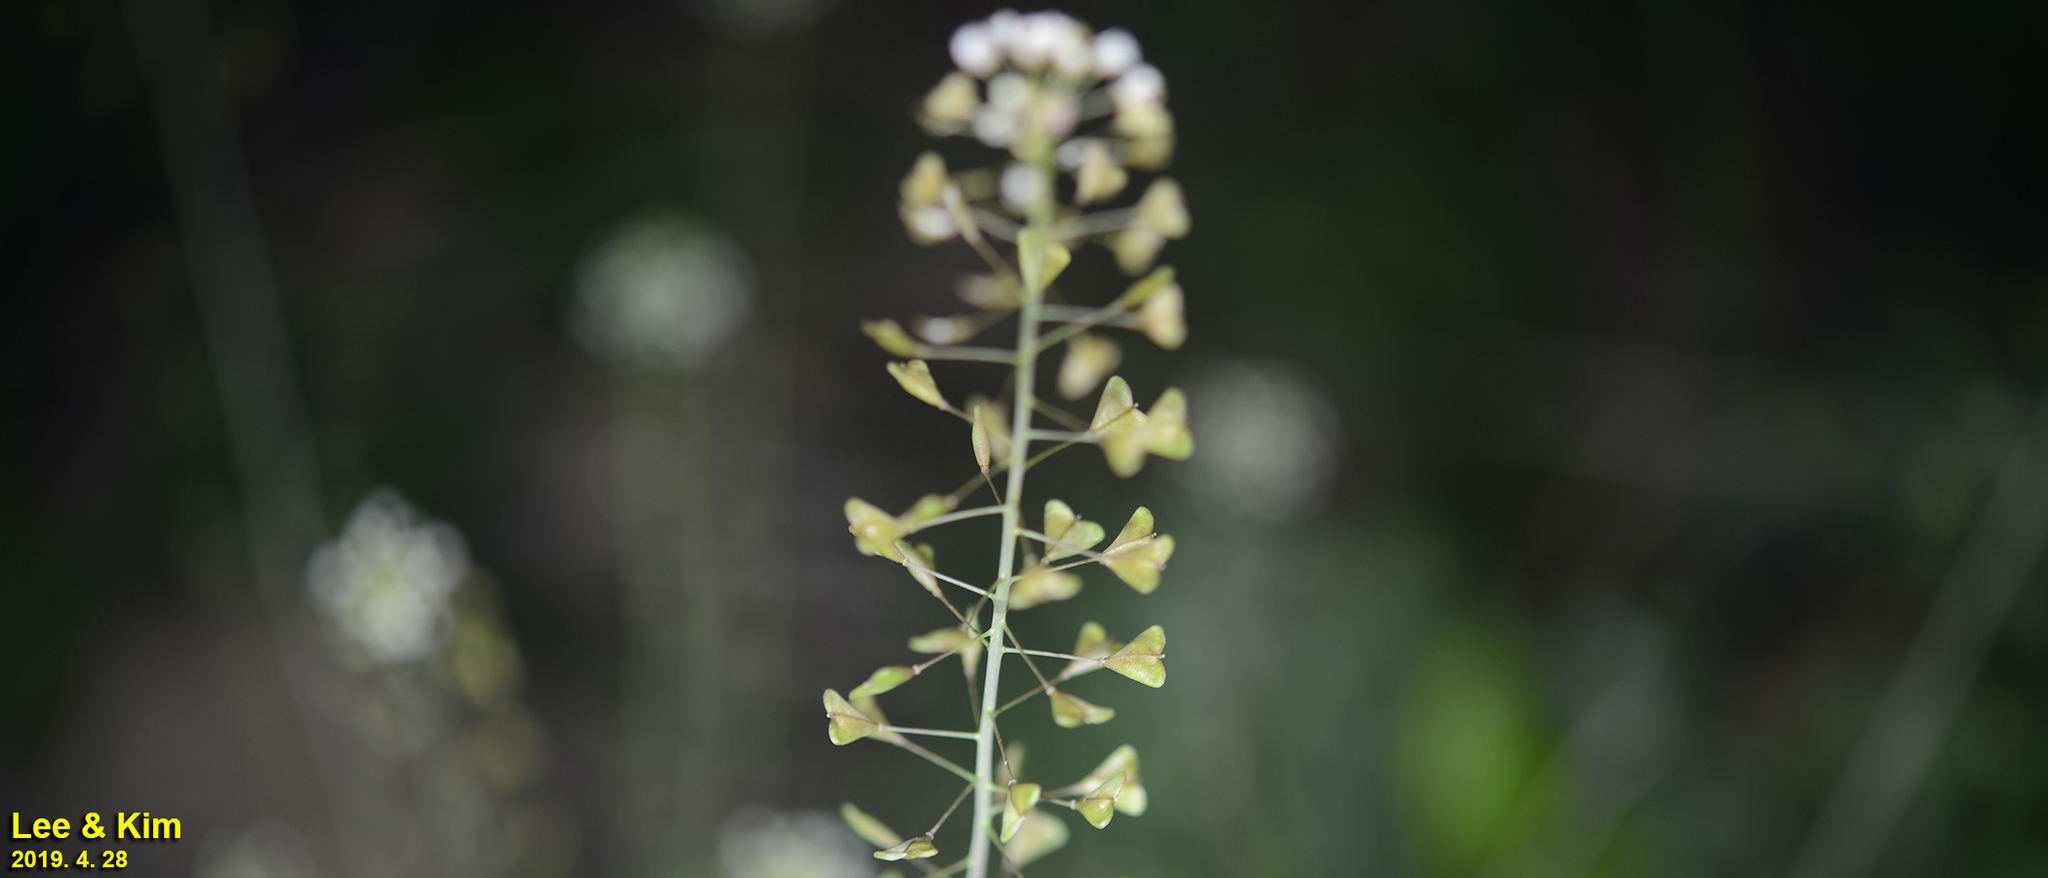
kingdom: Plantae
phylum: Tracheophyta
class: Magnoliopsida
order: Brassicales
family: Brassicaceae
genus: Capsella
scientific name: Capsella bursa-pastoris
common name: Shepherd's purse
